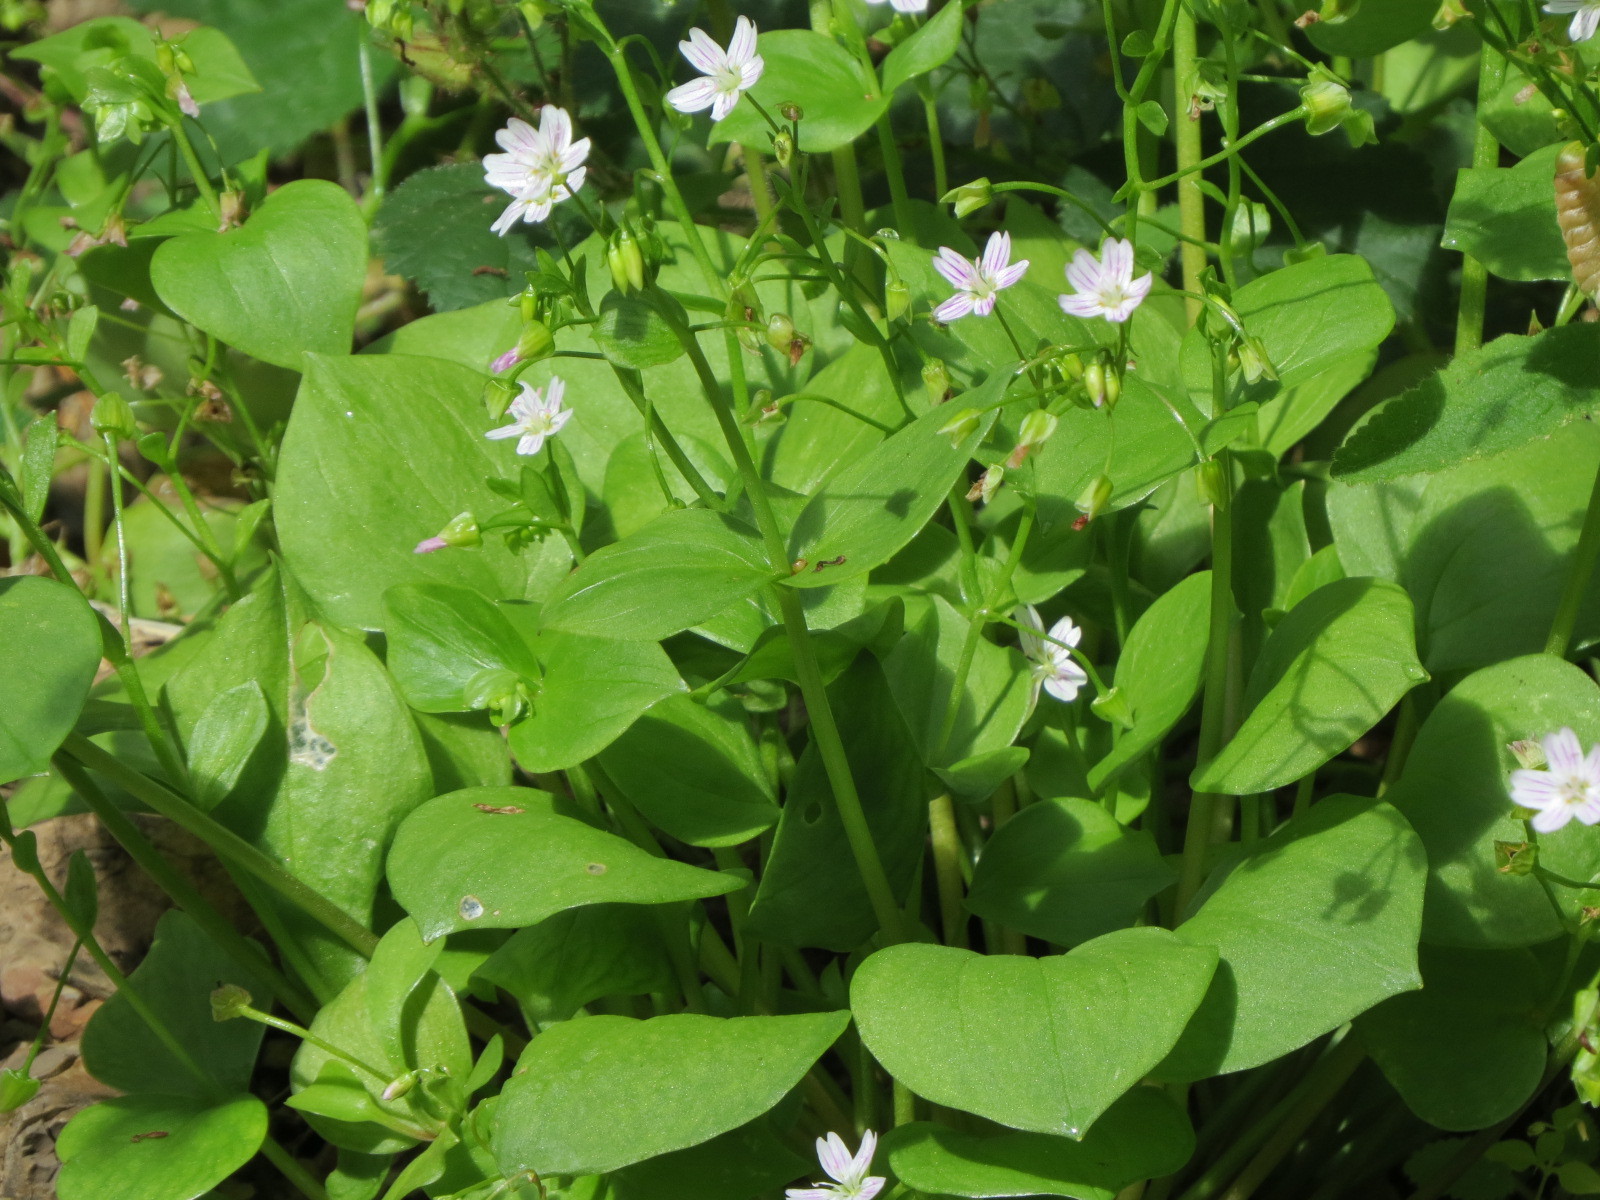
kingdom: Plantae
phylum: Tracheophyta
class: Magnoliopsida
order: Caryophyllales
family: Montiaceae
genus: Claytonia
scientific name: Claytonia sibirica
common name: Pink purslane
